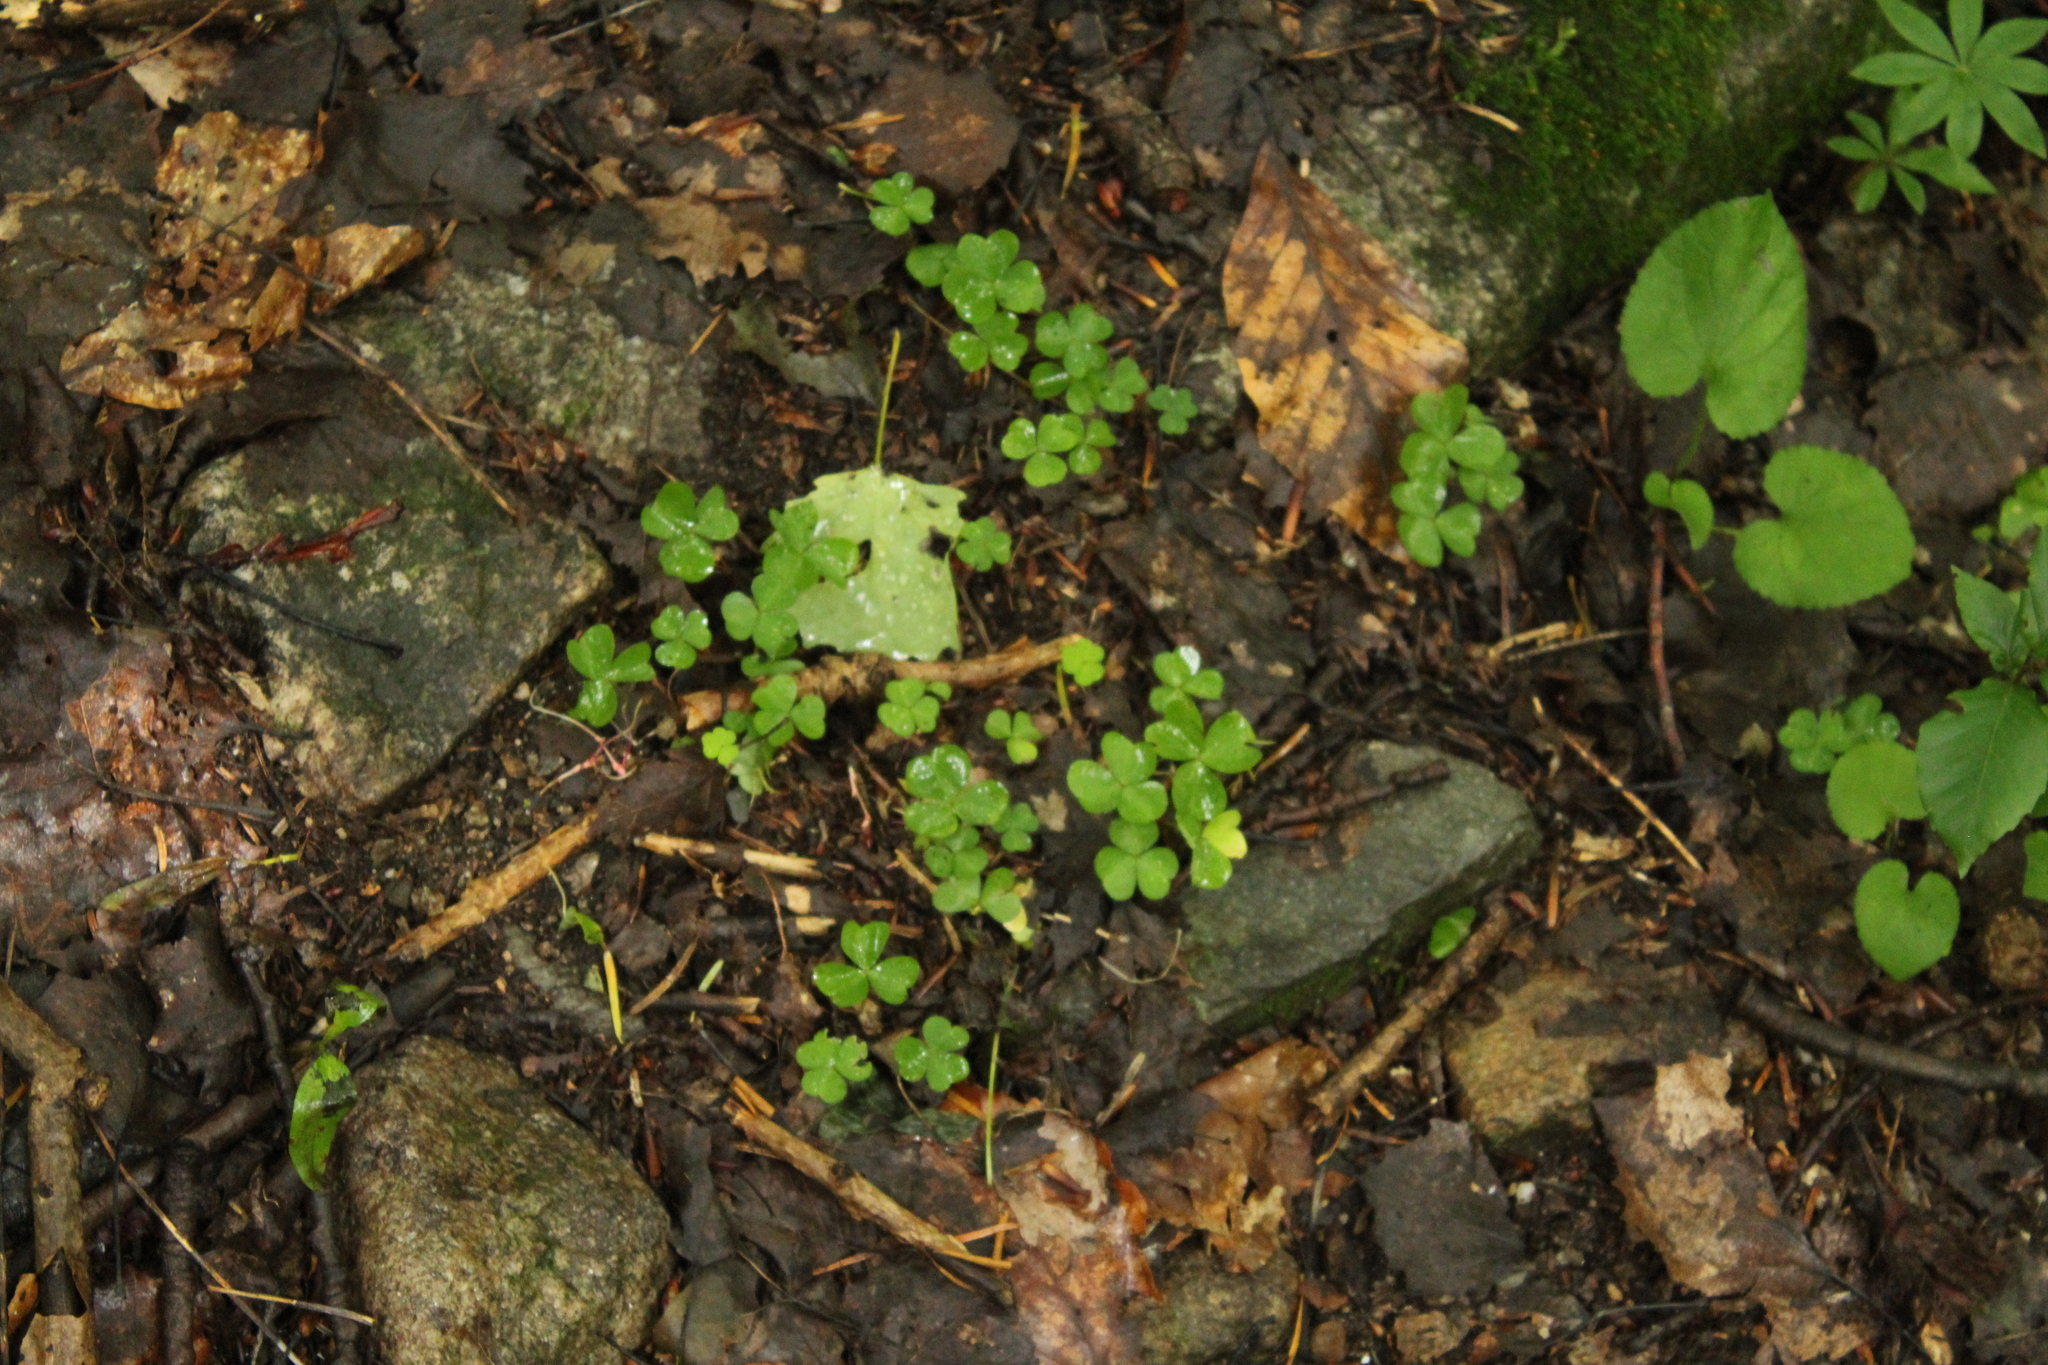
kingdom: Plantae
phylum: Tracheophyta
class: Magnoliopsida
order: Oxalidales
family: Oxalidaceae
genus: Oxalis
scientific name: Oxalis acetosella
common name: Wood-sorrel
